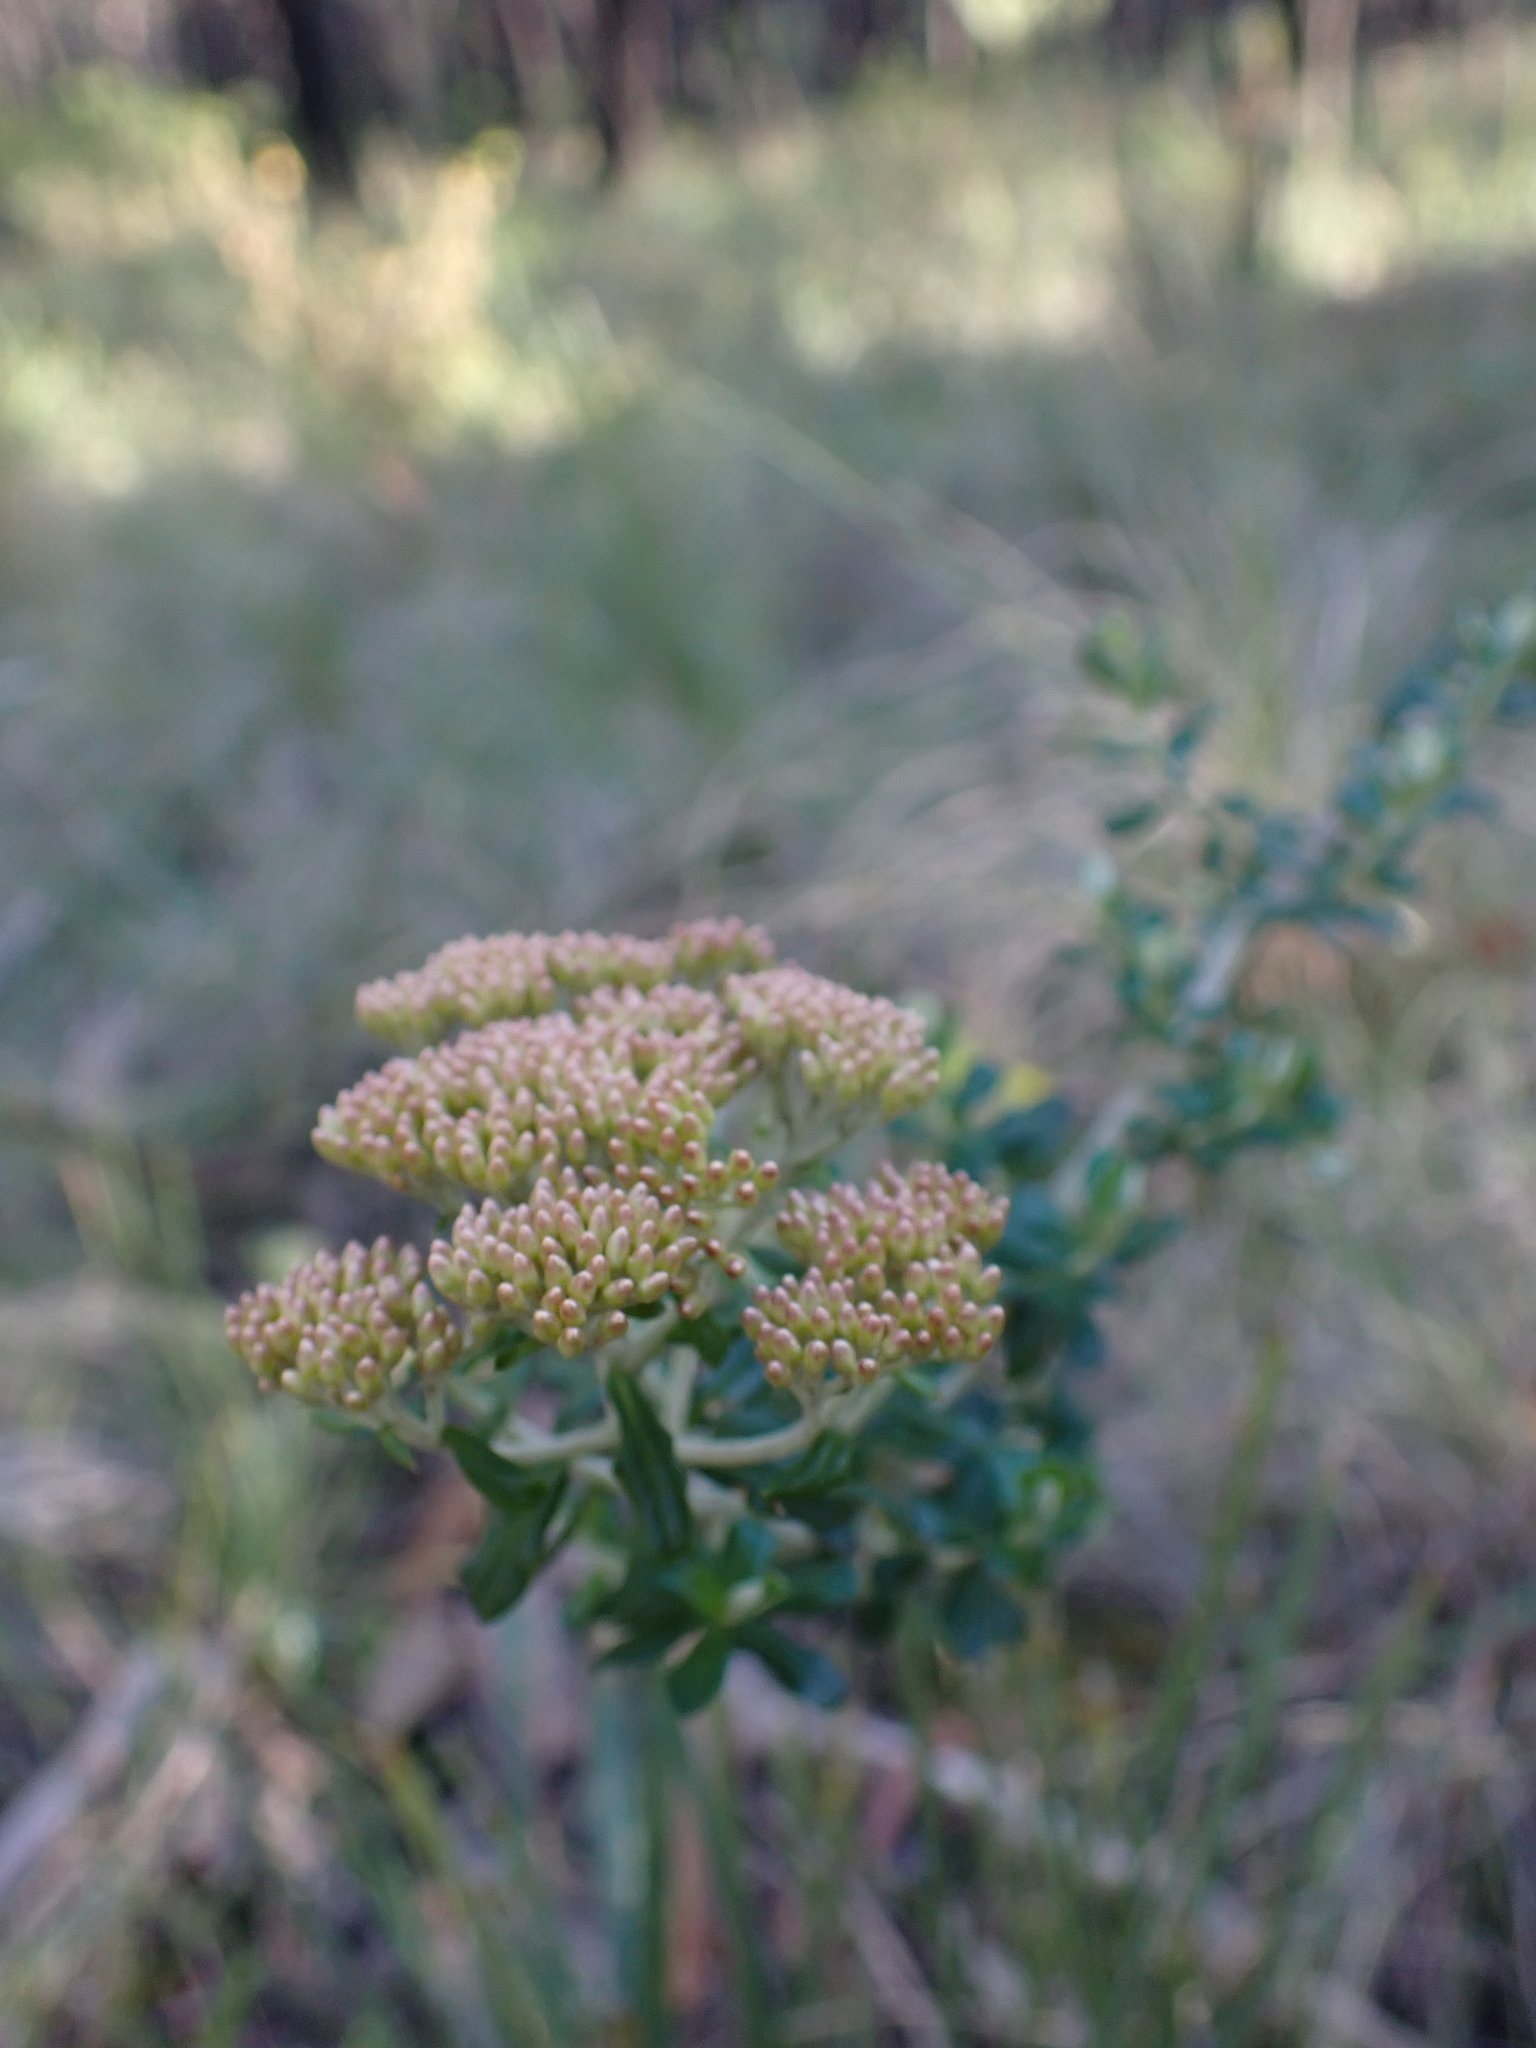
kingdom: Plantae
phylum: Tracheophyta
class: Magnoliopsida
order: Asterales
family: Asteraceae
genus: Ozothamnus
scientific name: Ozothamnus obcordatus
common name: Grey everlasting
